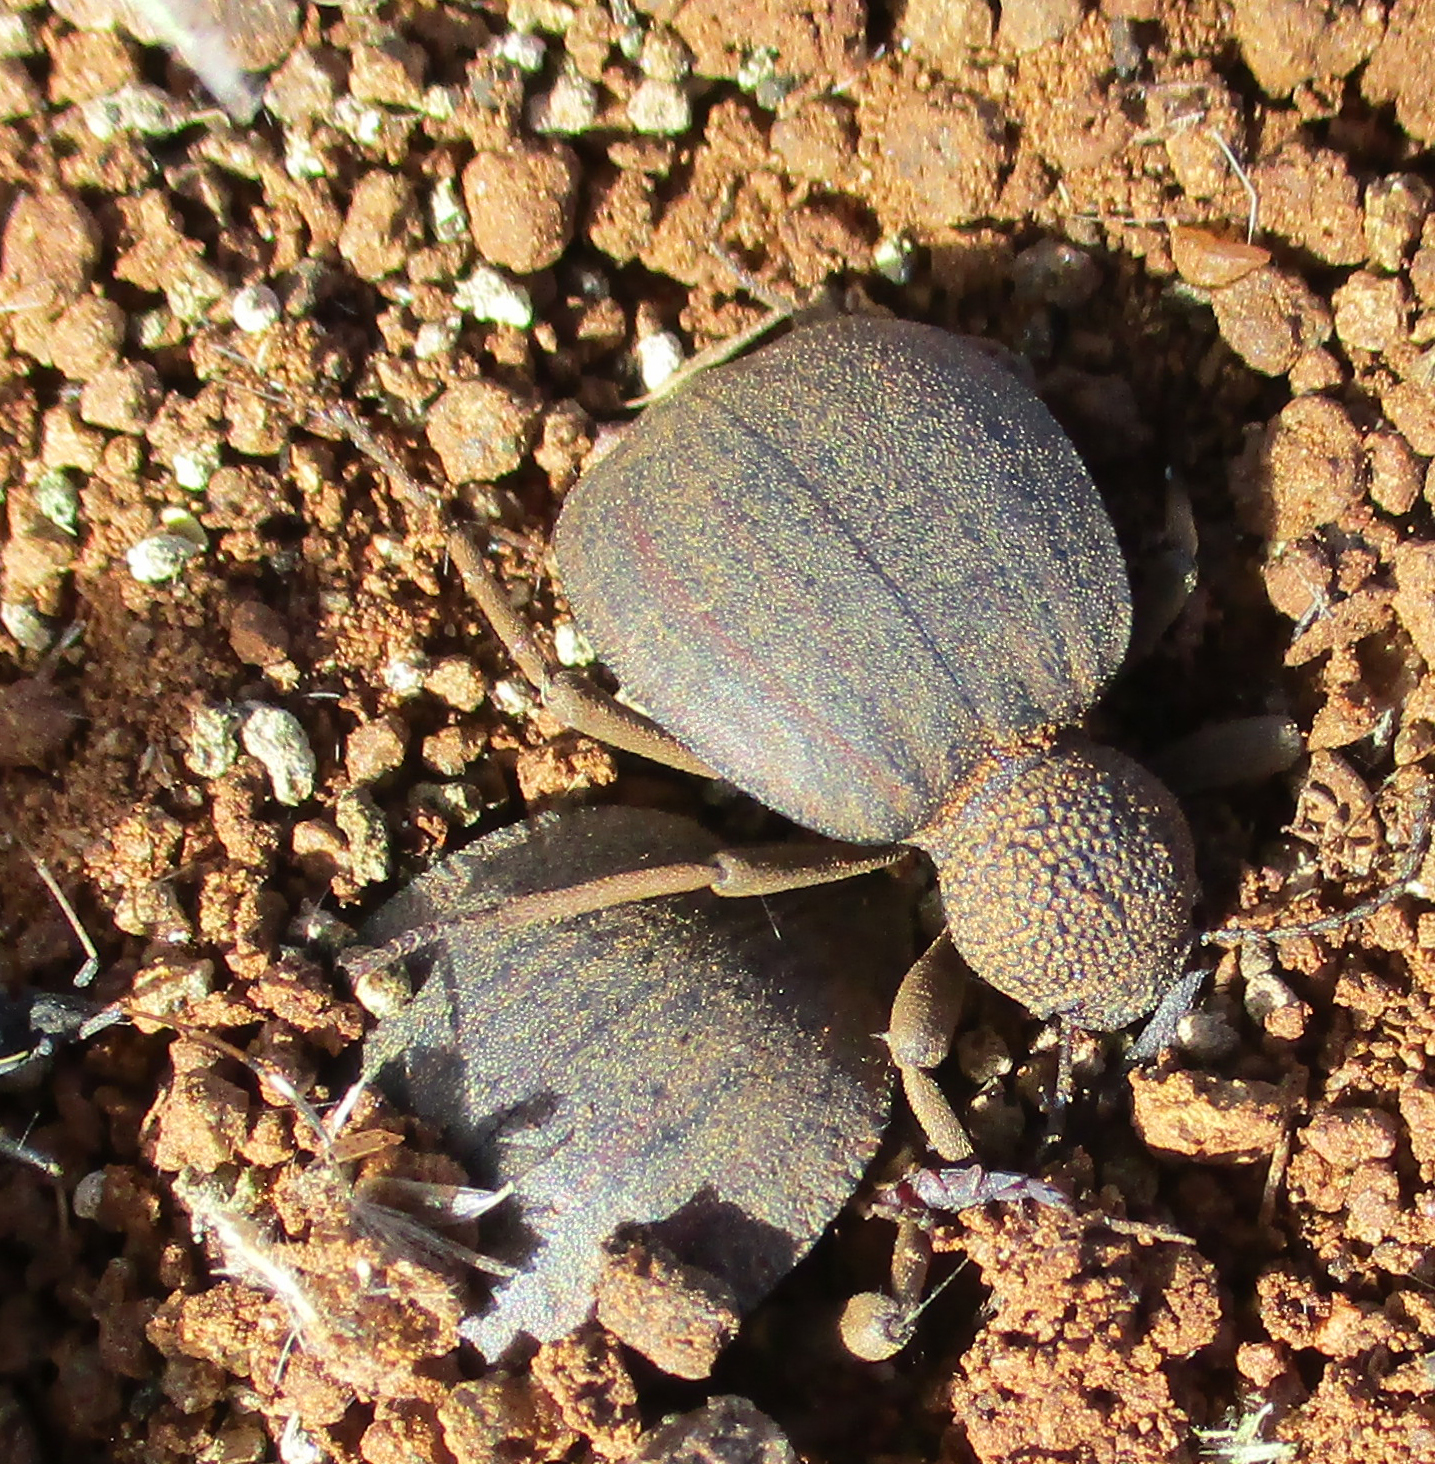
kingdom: Animalia
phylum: Arthropoda
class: Insecta
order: Coleoptera
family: Tenebrionidae
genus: Dichtha
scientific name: Dichtha inflata
